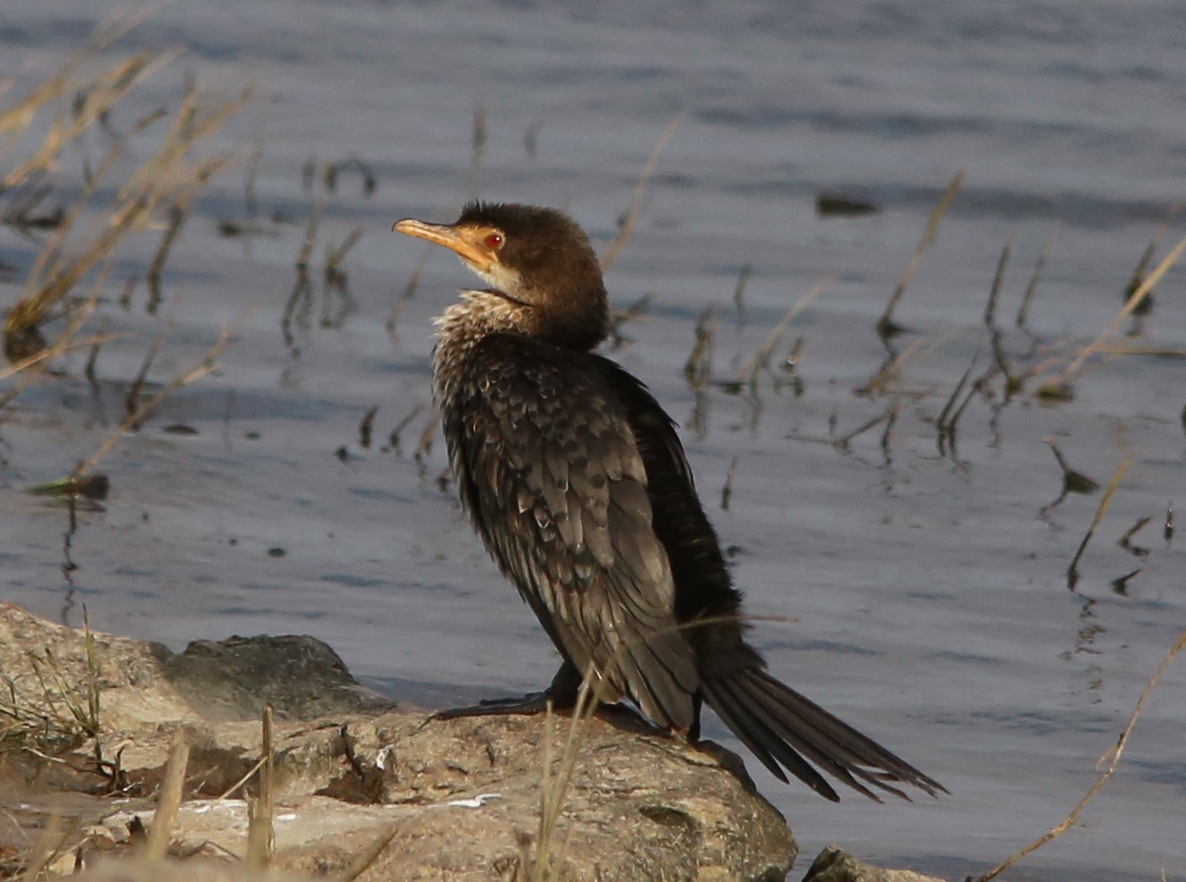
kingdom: Animalia
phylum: Chordata
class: Aves
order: Suliformes
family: Phalacrocoracidae
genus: Microcarbo
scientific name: Microcarbo africanus
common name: Long-tailed cormorant
